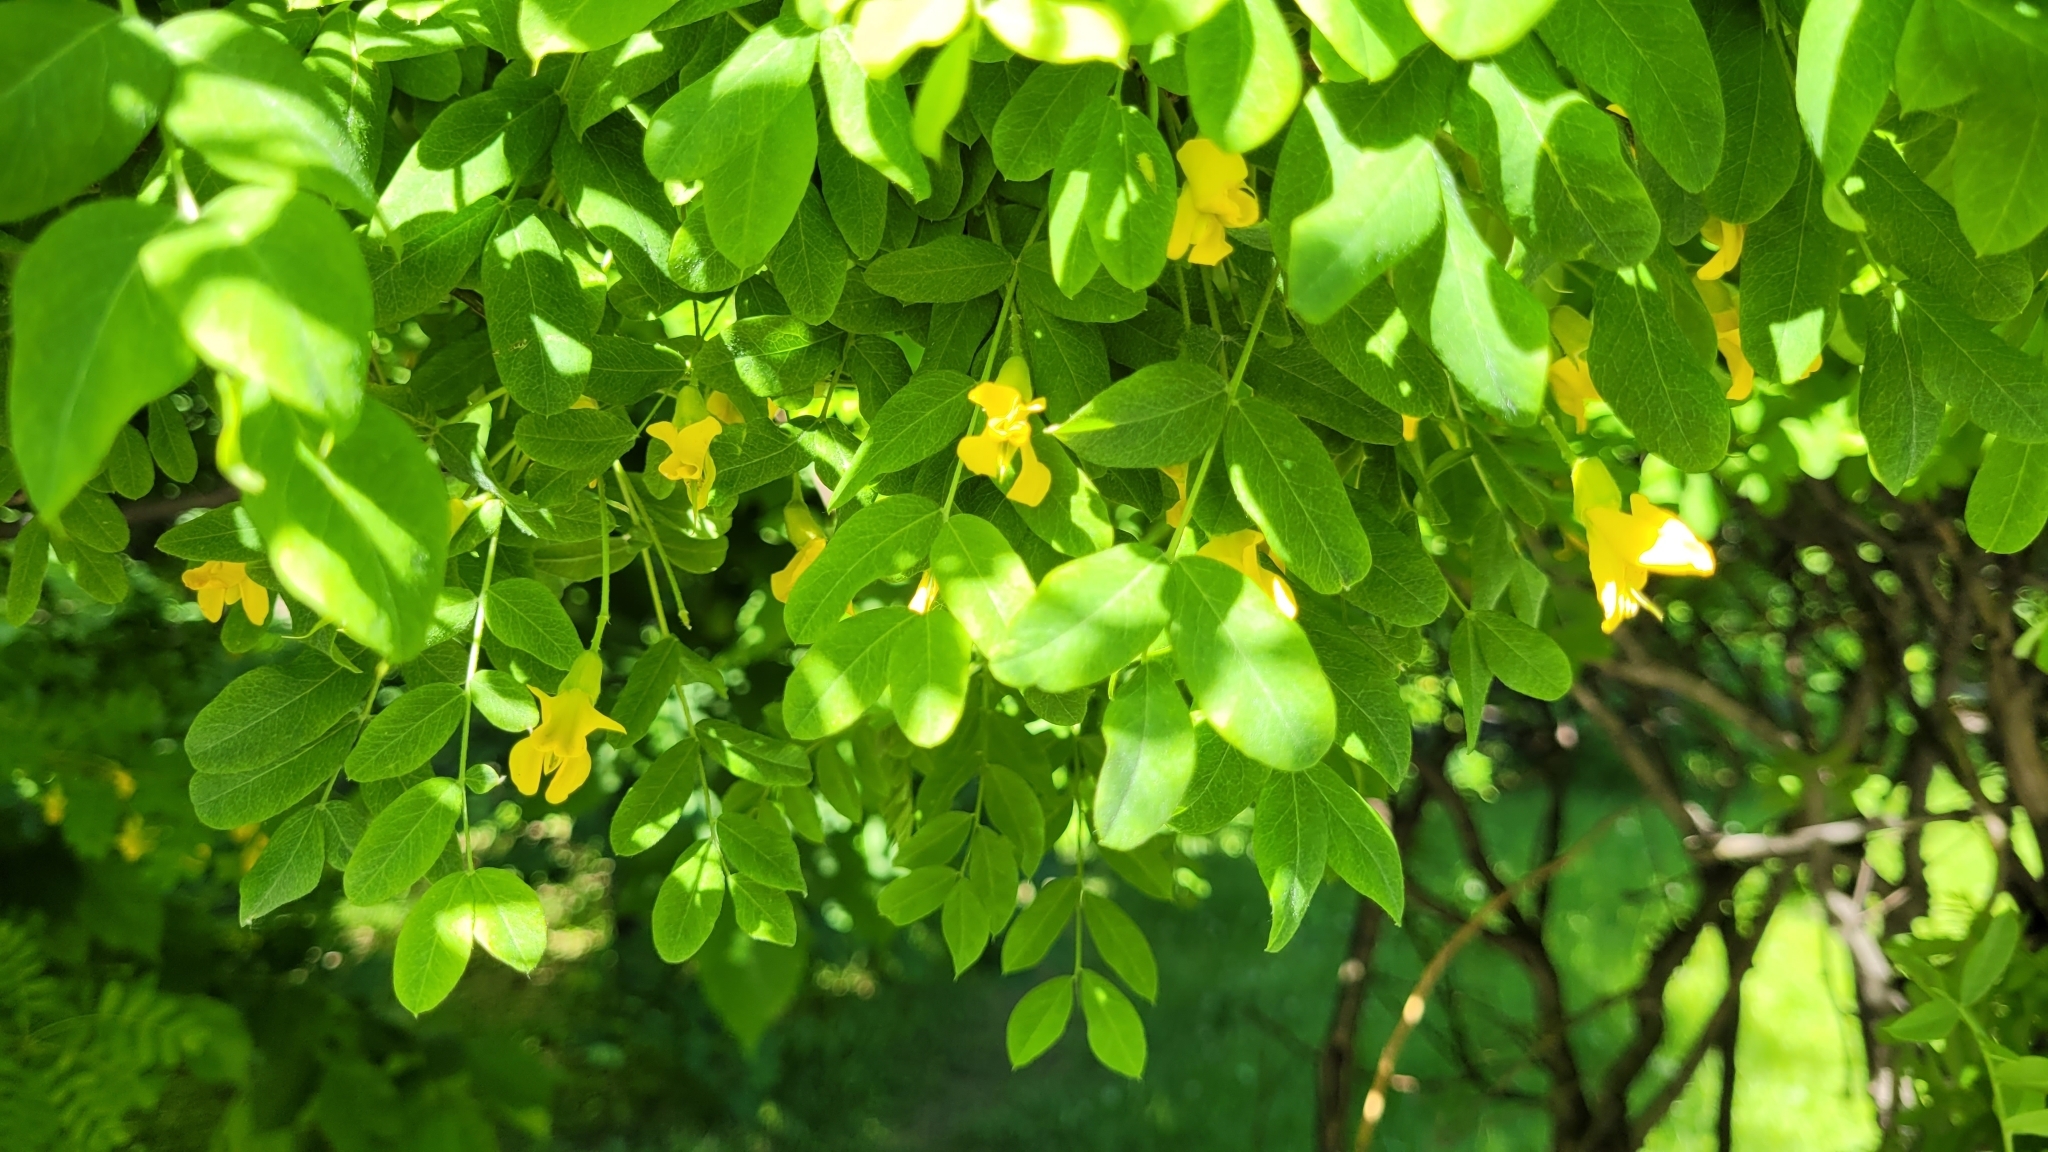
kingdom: Plantae
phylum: Tracheophyta
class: Magnoliopsida
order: Fabales
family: Fabaceae
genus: Caragana
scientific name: Caragana arborescens
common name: Siberian peashrub
